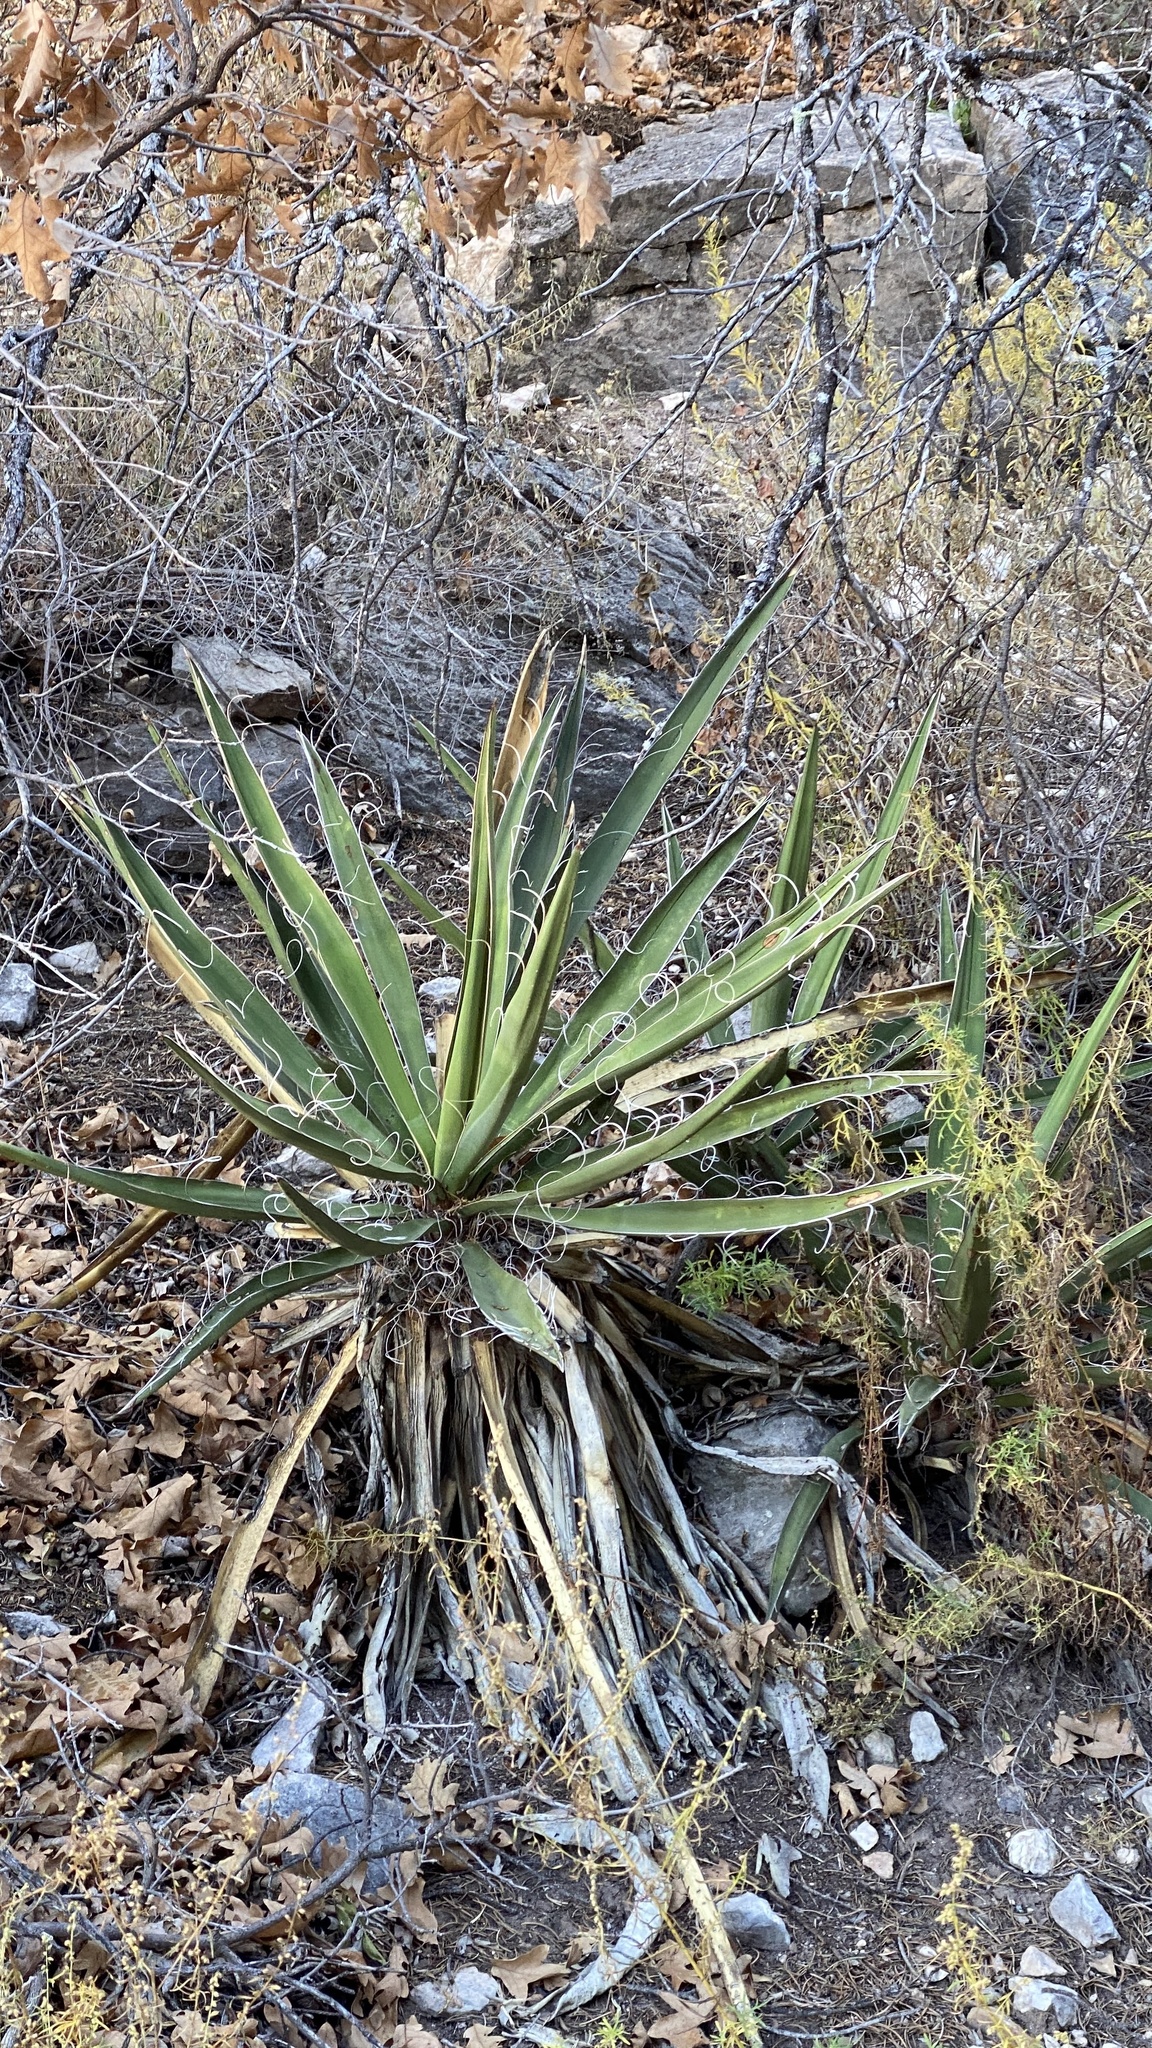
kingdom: Plantae
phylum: Tracheophyta
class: Liliopsida
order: Asparagales
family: Asparagaceae
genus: Yucca
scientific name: Yucca baccata
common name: Banana yucca
